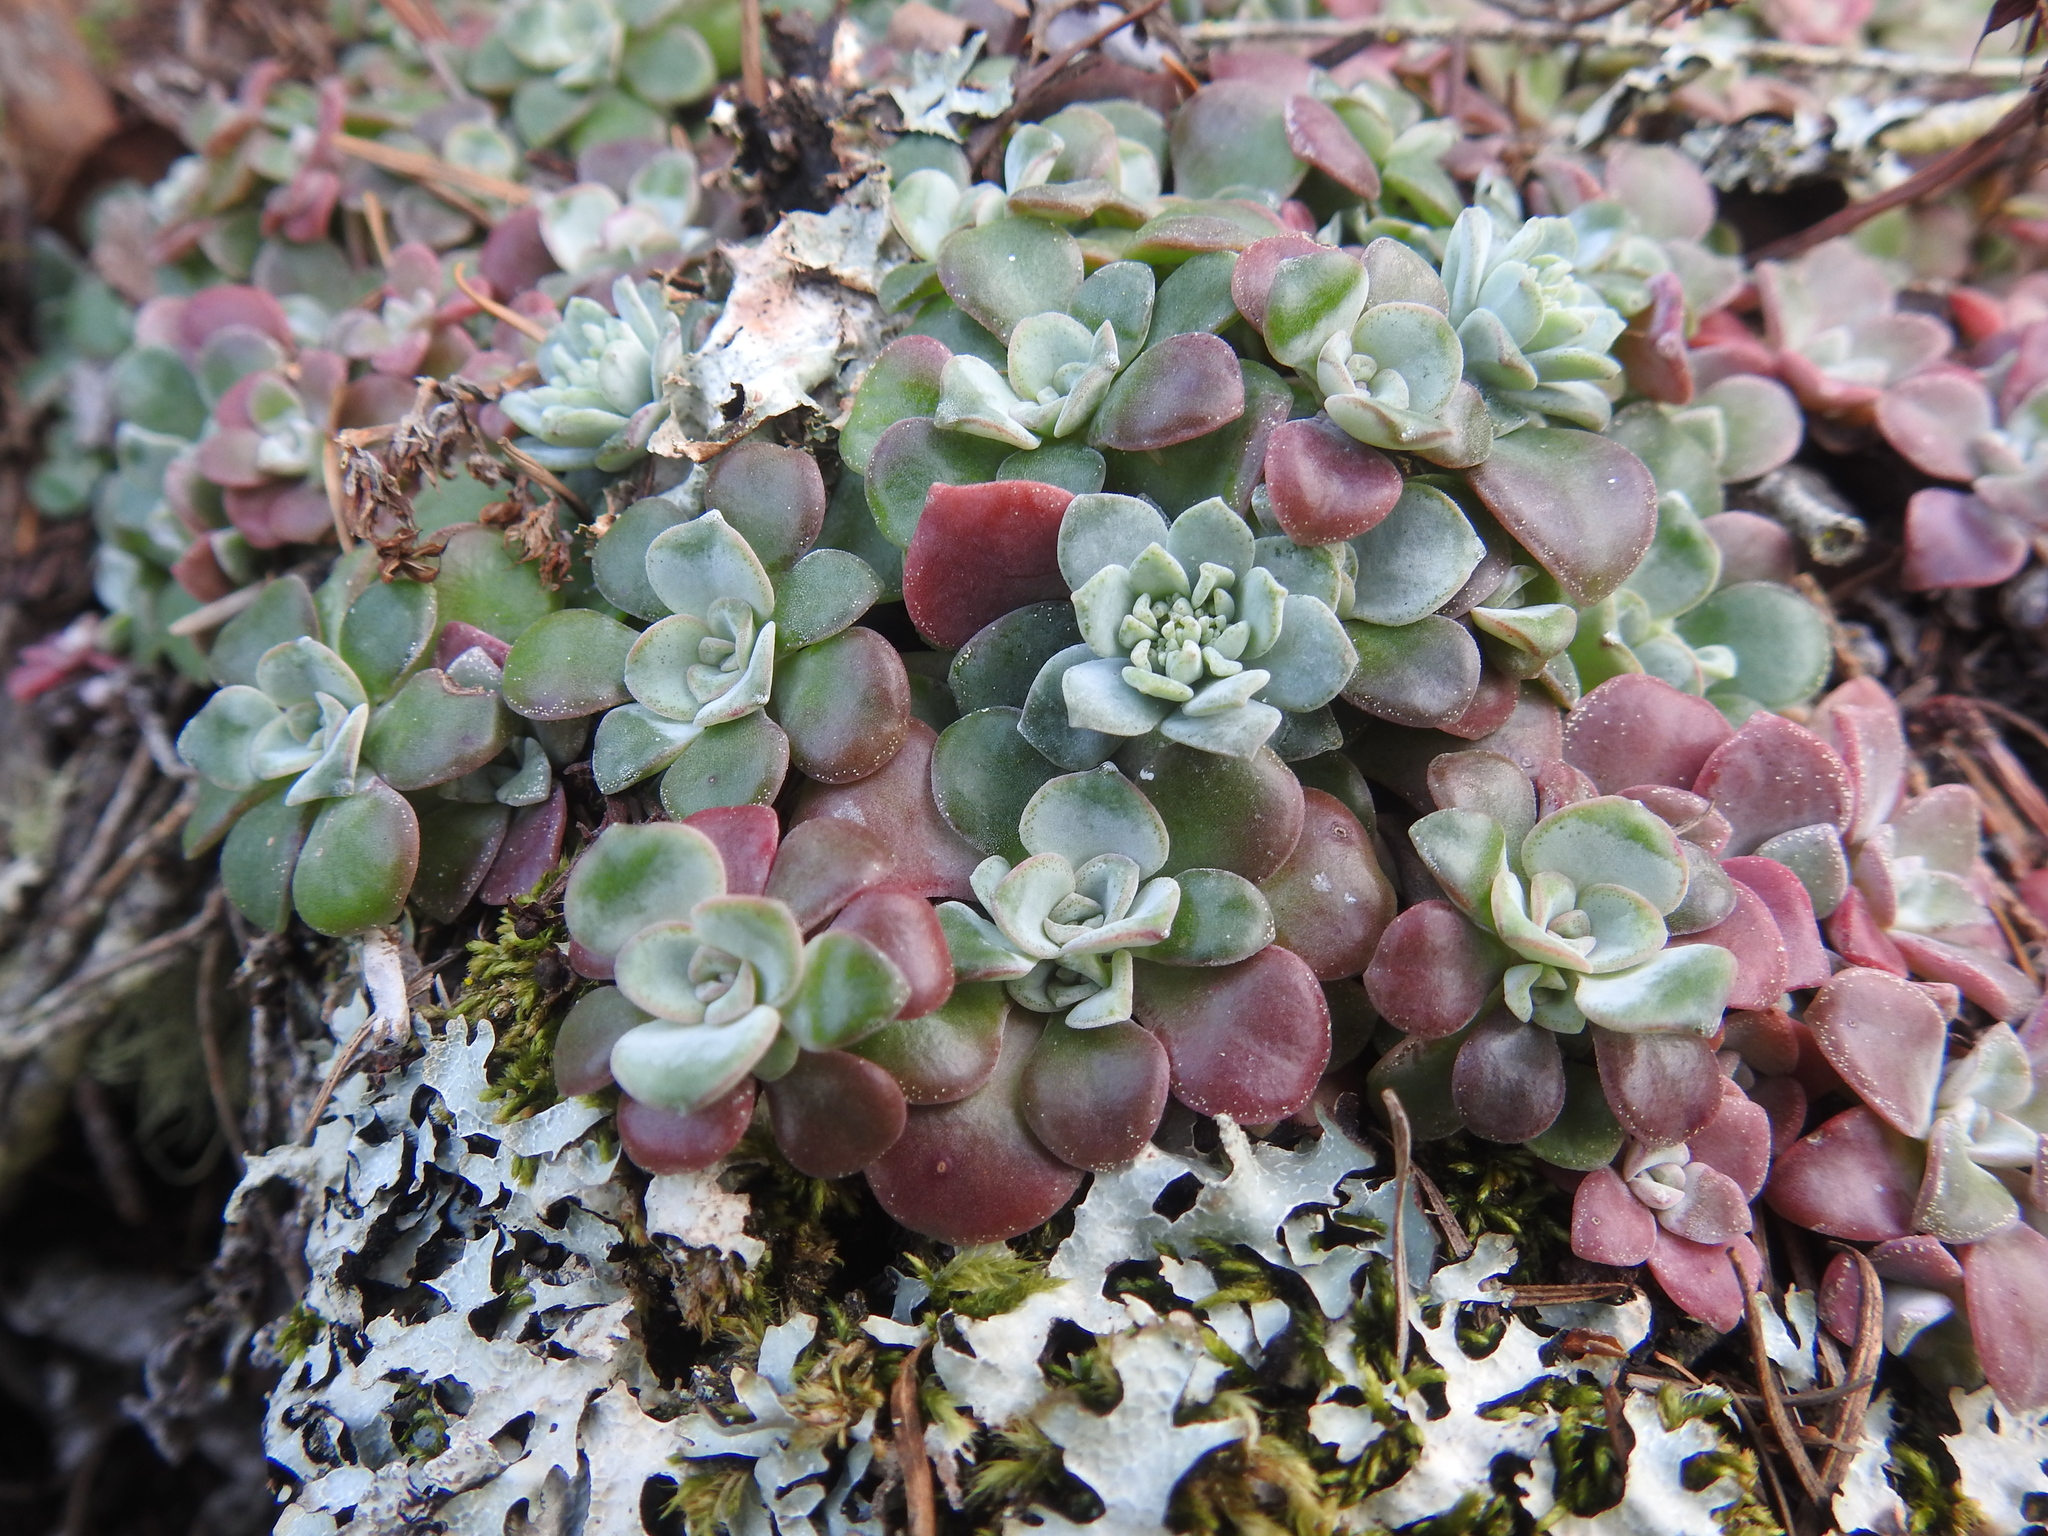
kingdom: Plantae
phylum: Tracheophyta
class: Magnoliopsida
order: Saxifragales
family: Crassulaceae
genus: Sedum
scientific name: Sedum spathulifolium
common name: Colorado stonecrop
